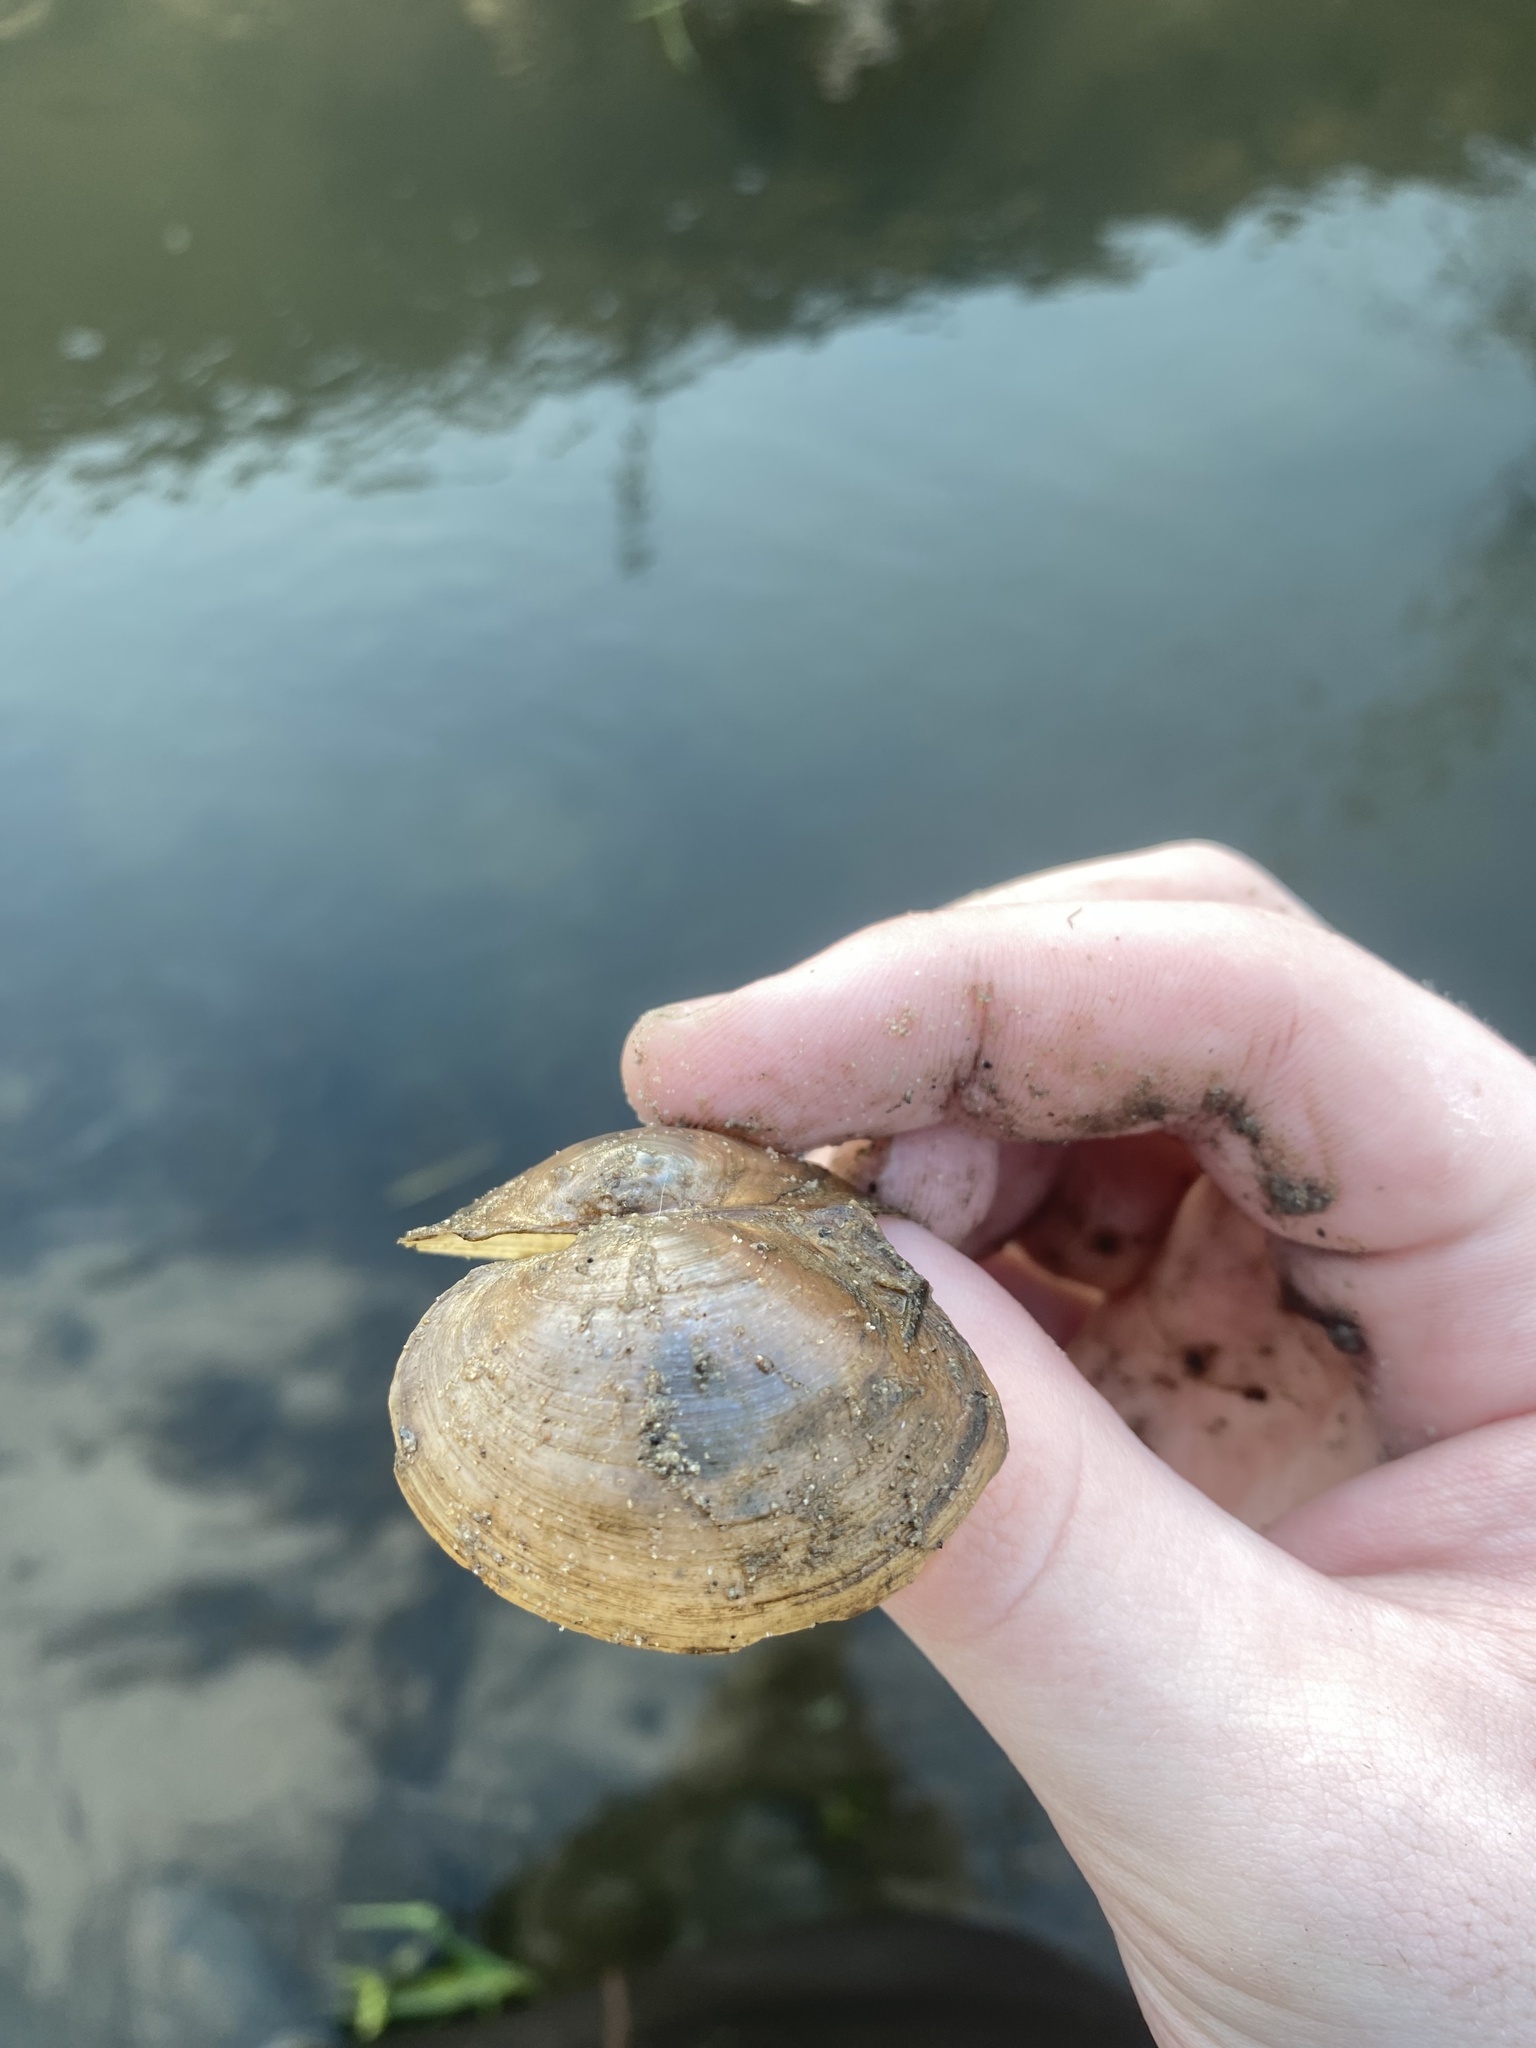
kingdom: Animalia
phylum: Mollusca
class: Bivalvia
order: Unionida
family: Unionidae
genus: Pyganodon
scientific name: Pyganodon grandis
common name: Giant floater
